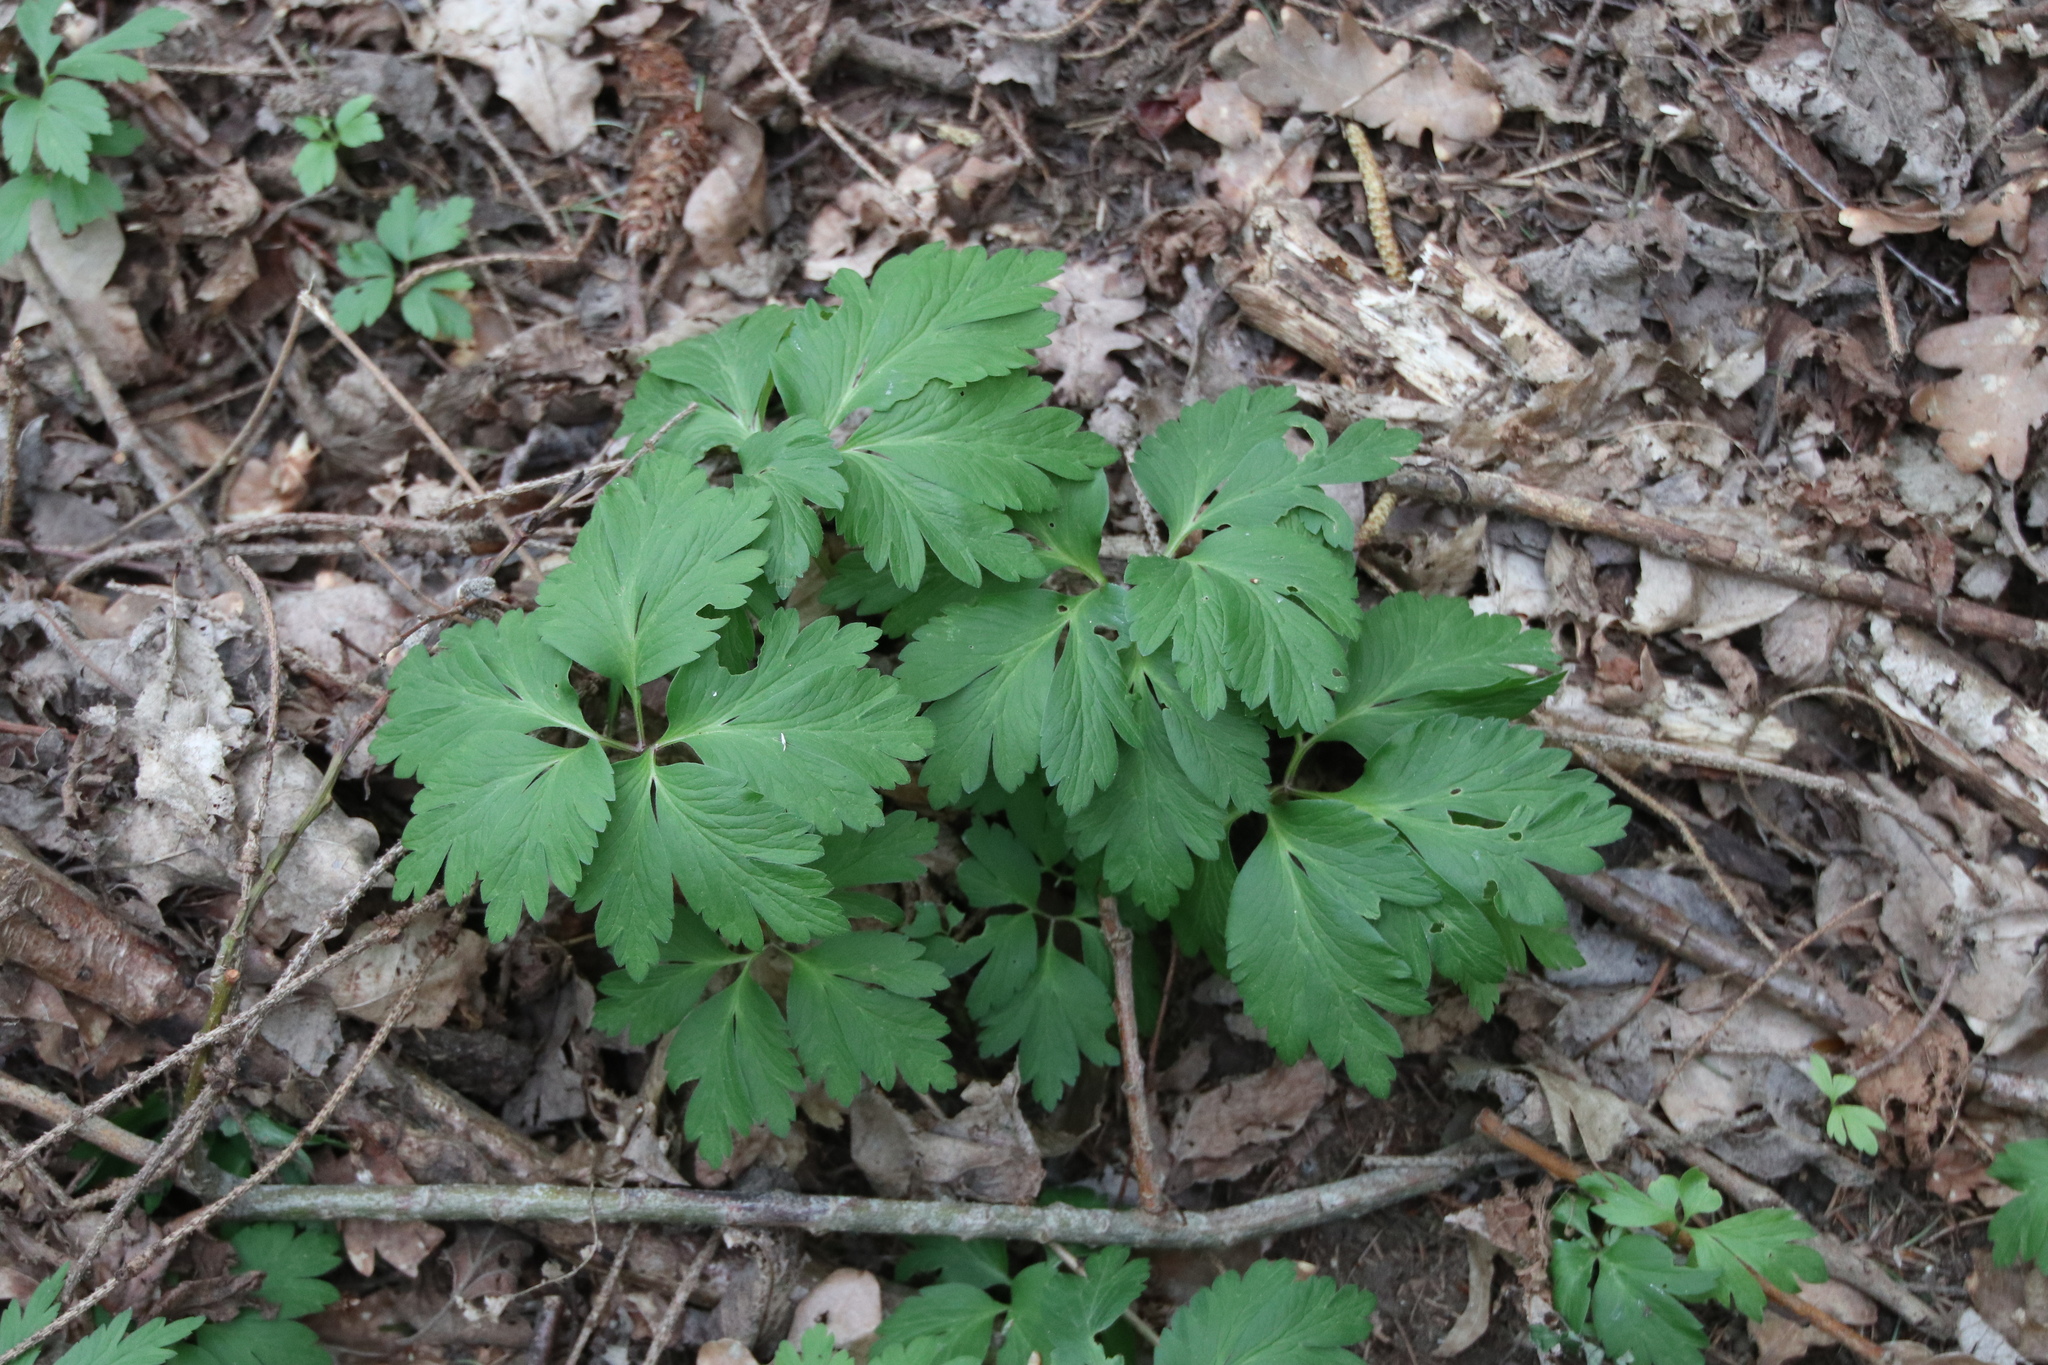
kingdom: Plantae
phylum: Tracheophyta
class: Magnoliopsida
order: Ranunculales
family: Ranunculaceae
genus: Anemone
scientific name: Anemone nemorosa
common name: Wood anemone
